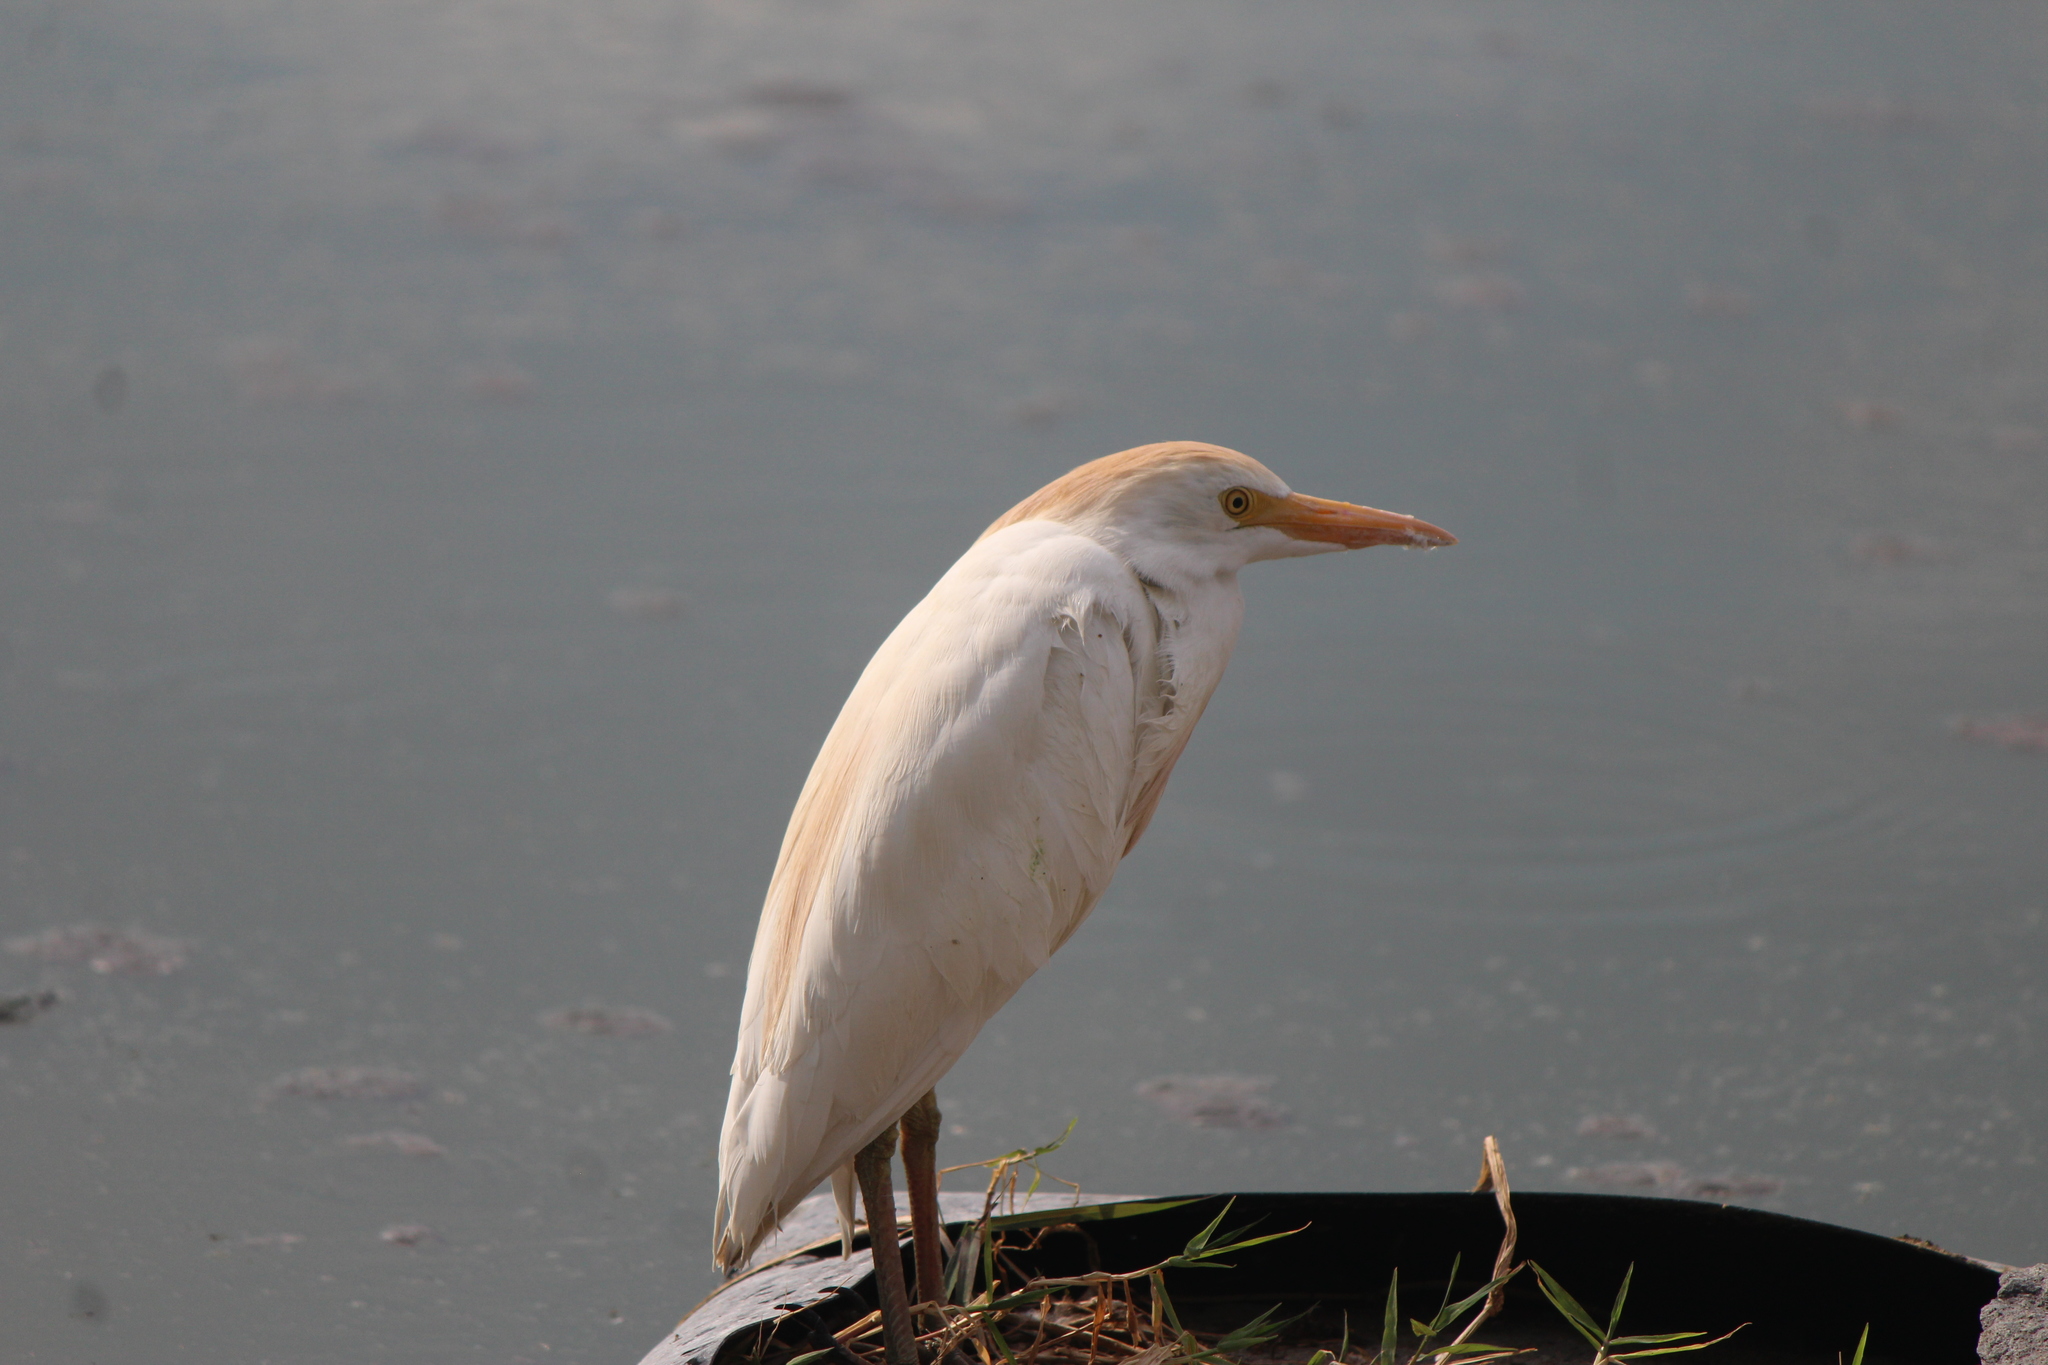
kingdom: Animalia
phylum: Chordata
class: Aves
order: Pelecaniformes
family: Ardeidae
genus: Bubulcus
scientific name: Bubulcus ibis
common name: Cattle egret
